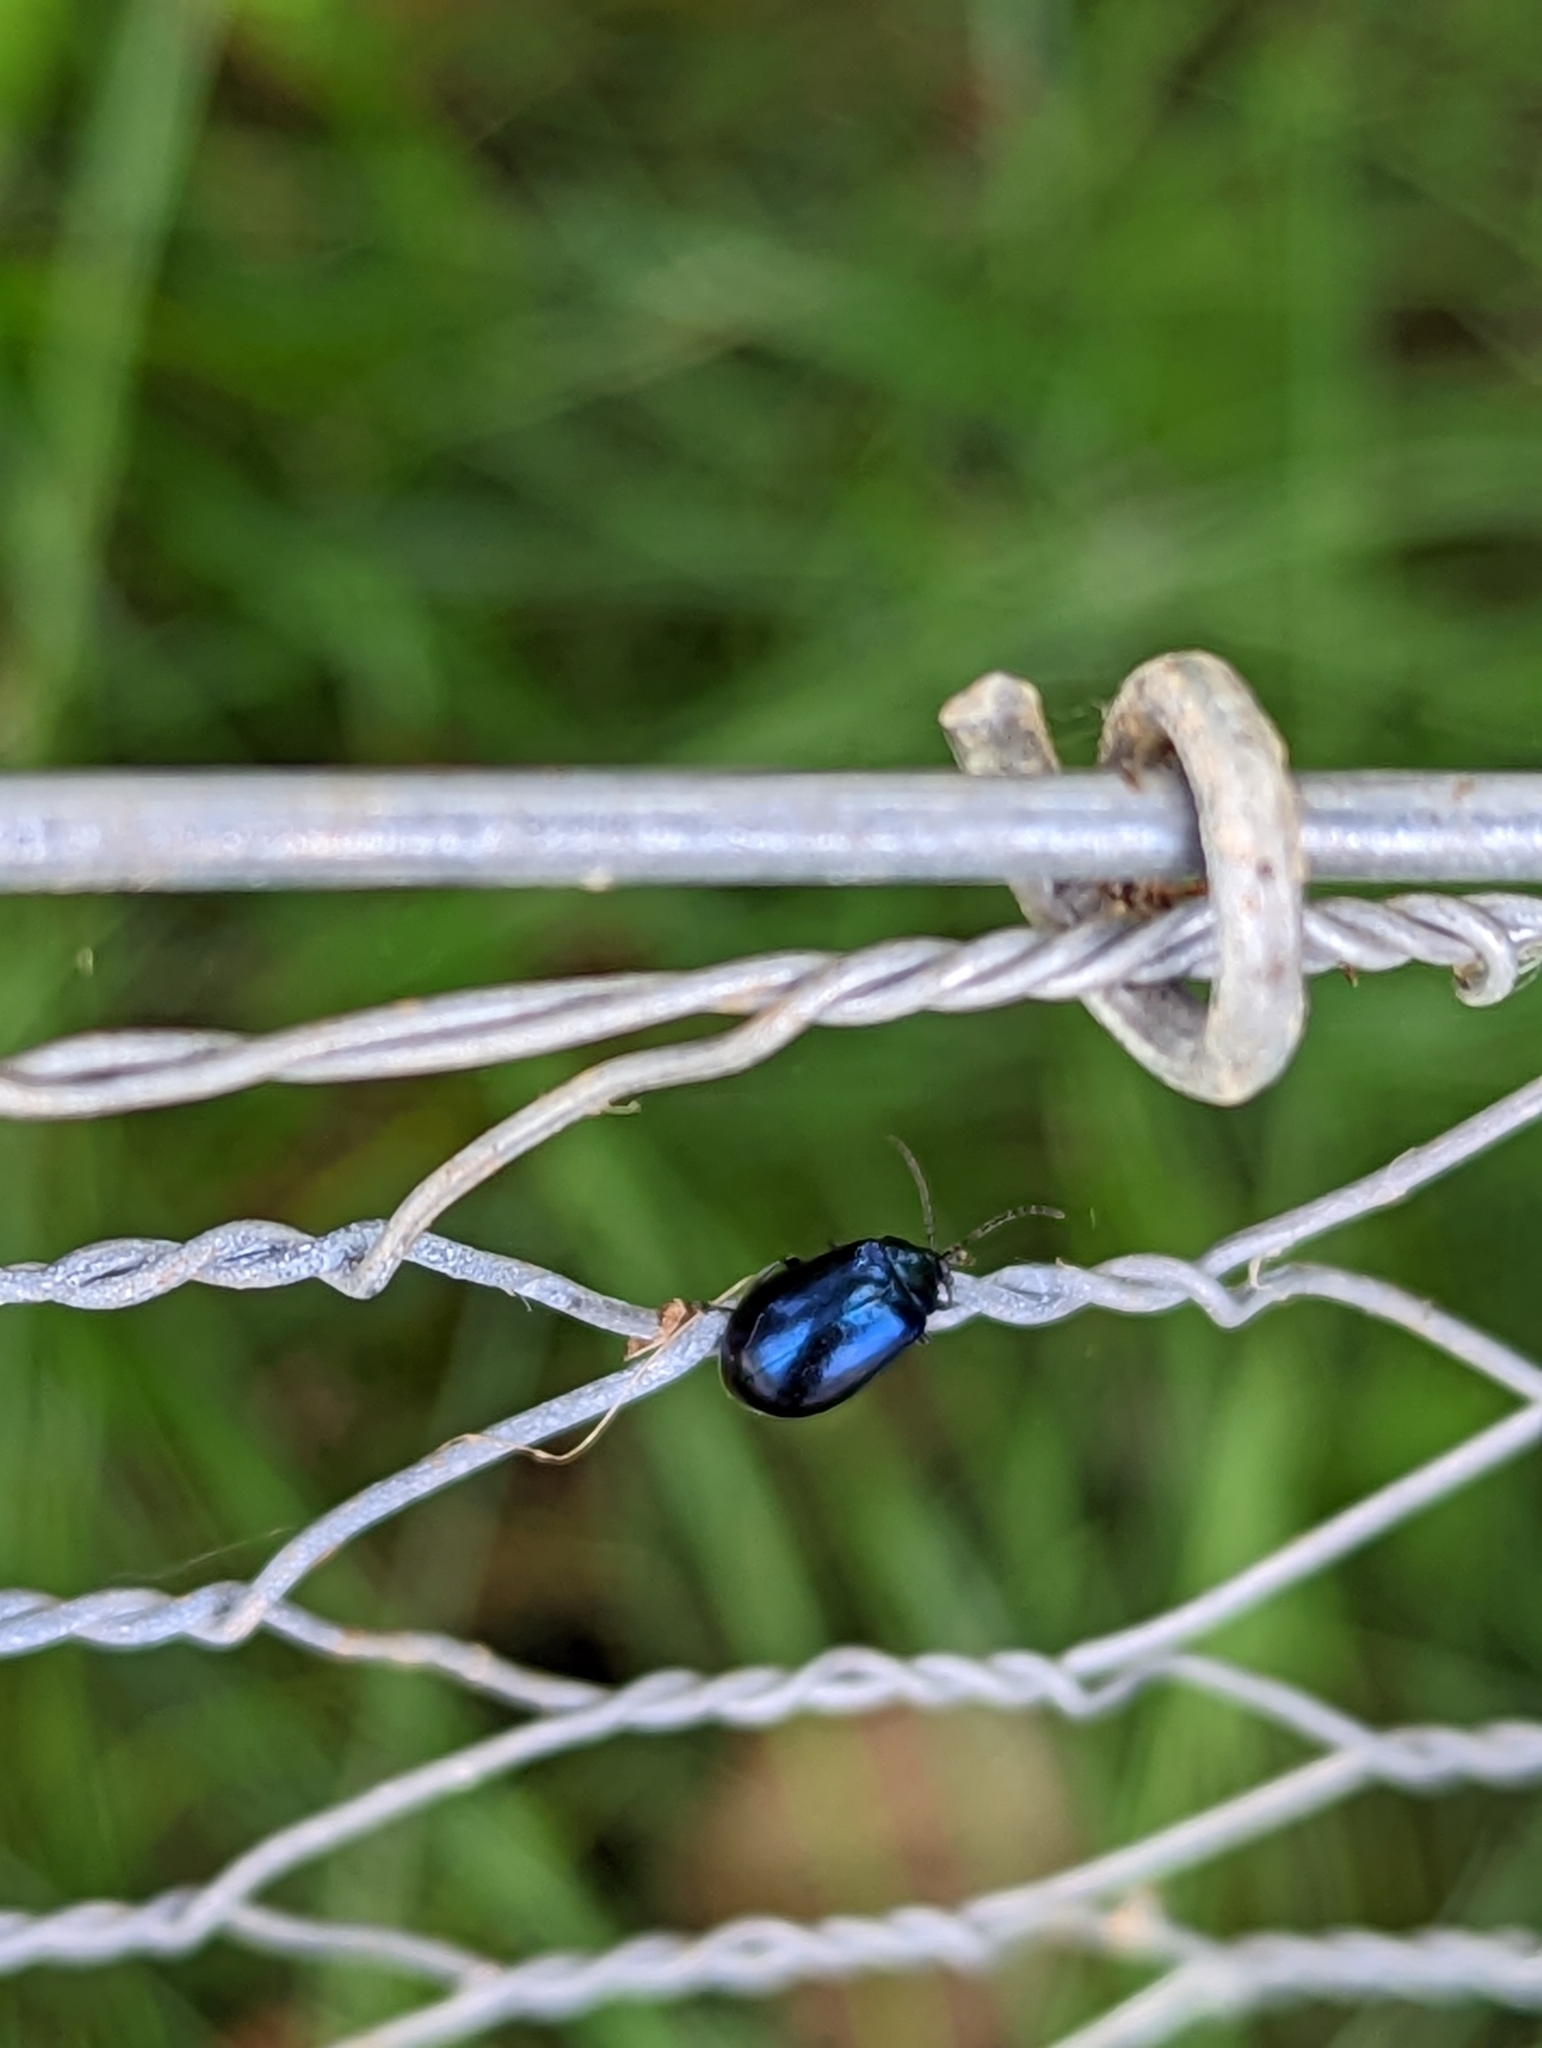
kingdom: Animalia
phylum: Arthropoda
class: Insecta
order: Coleoptera
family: Chrysomelidae
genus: Agelastica
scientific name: Agelastica alni
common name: Alder leaf beetle
